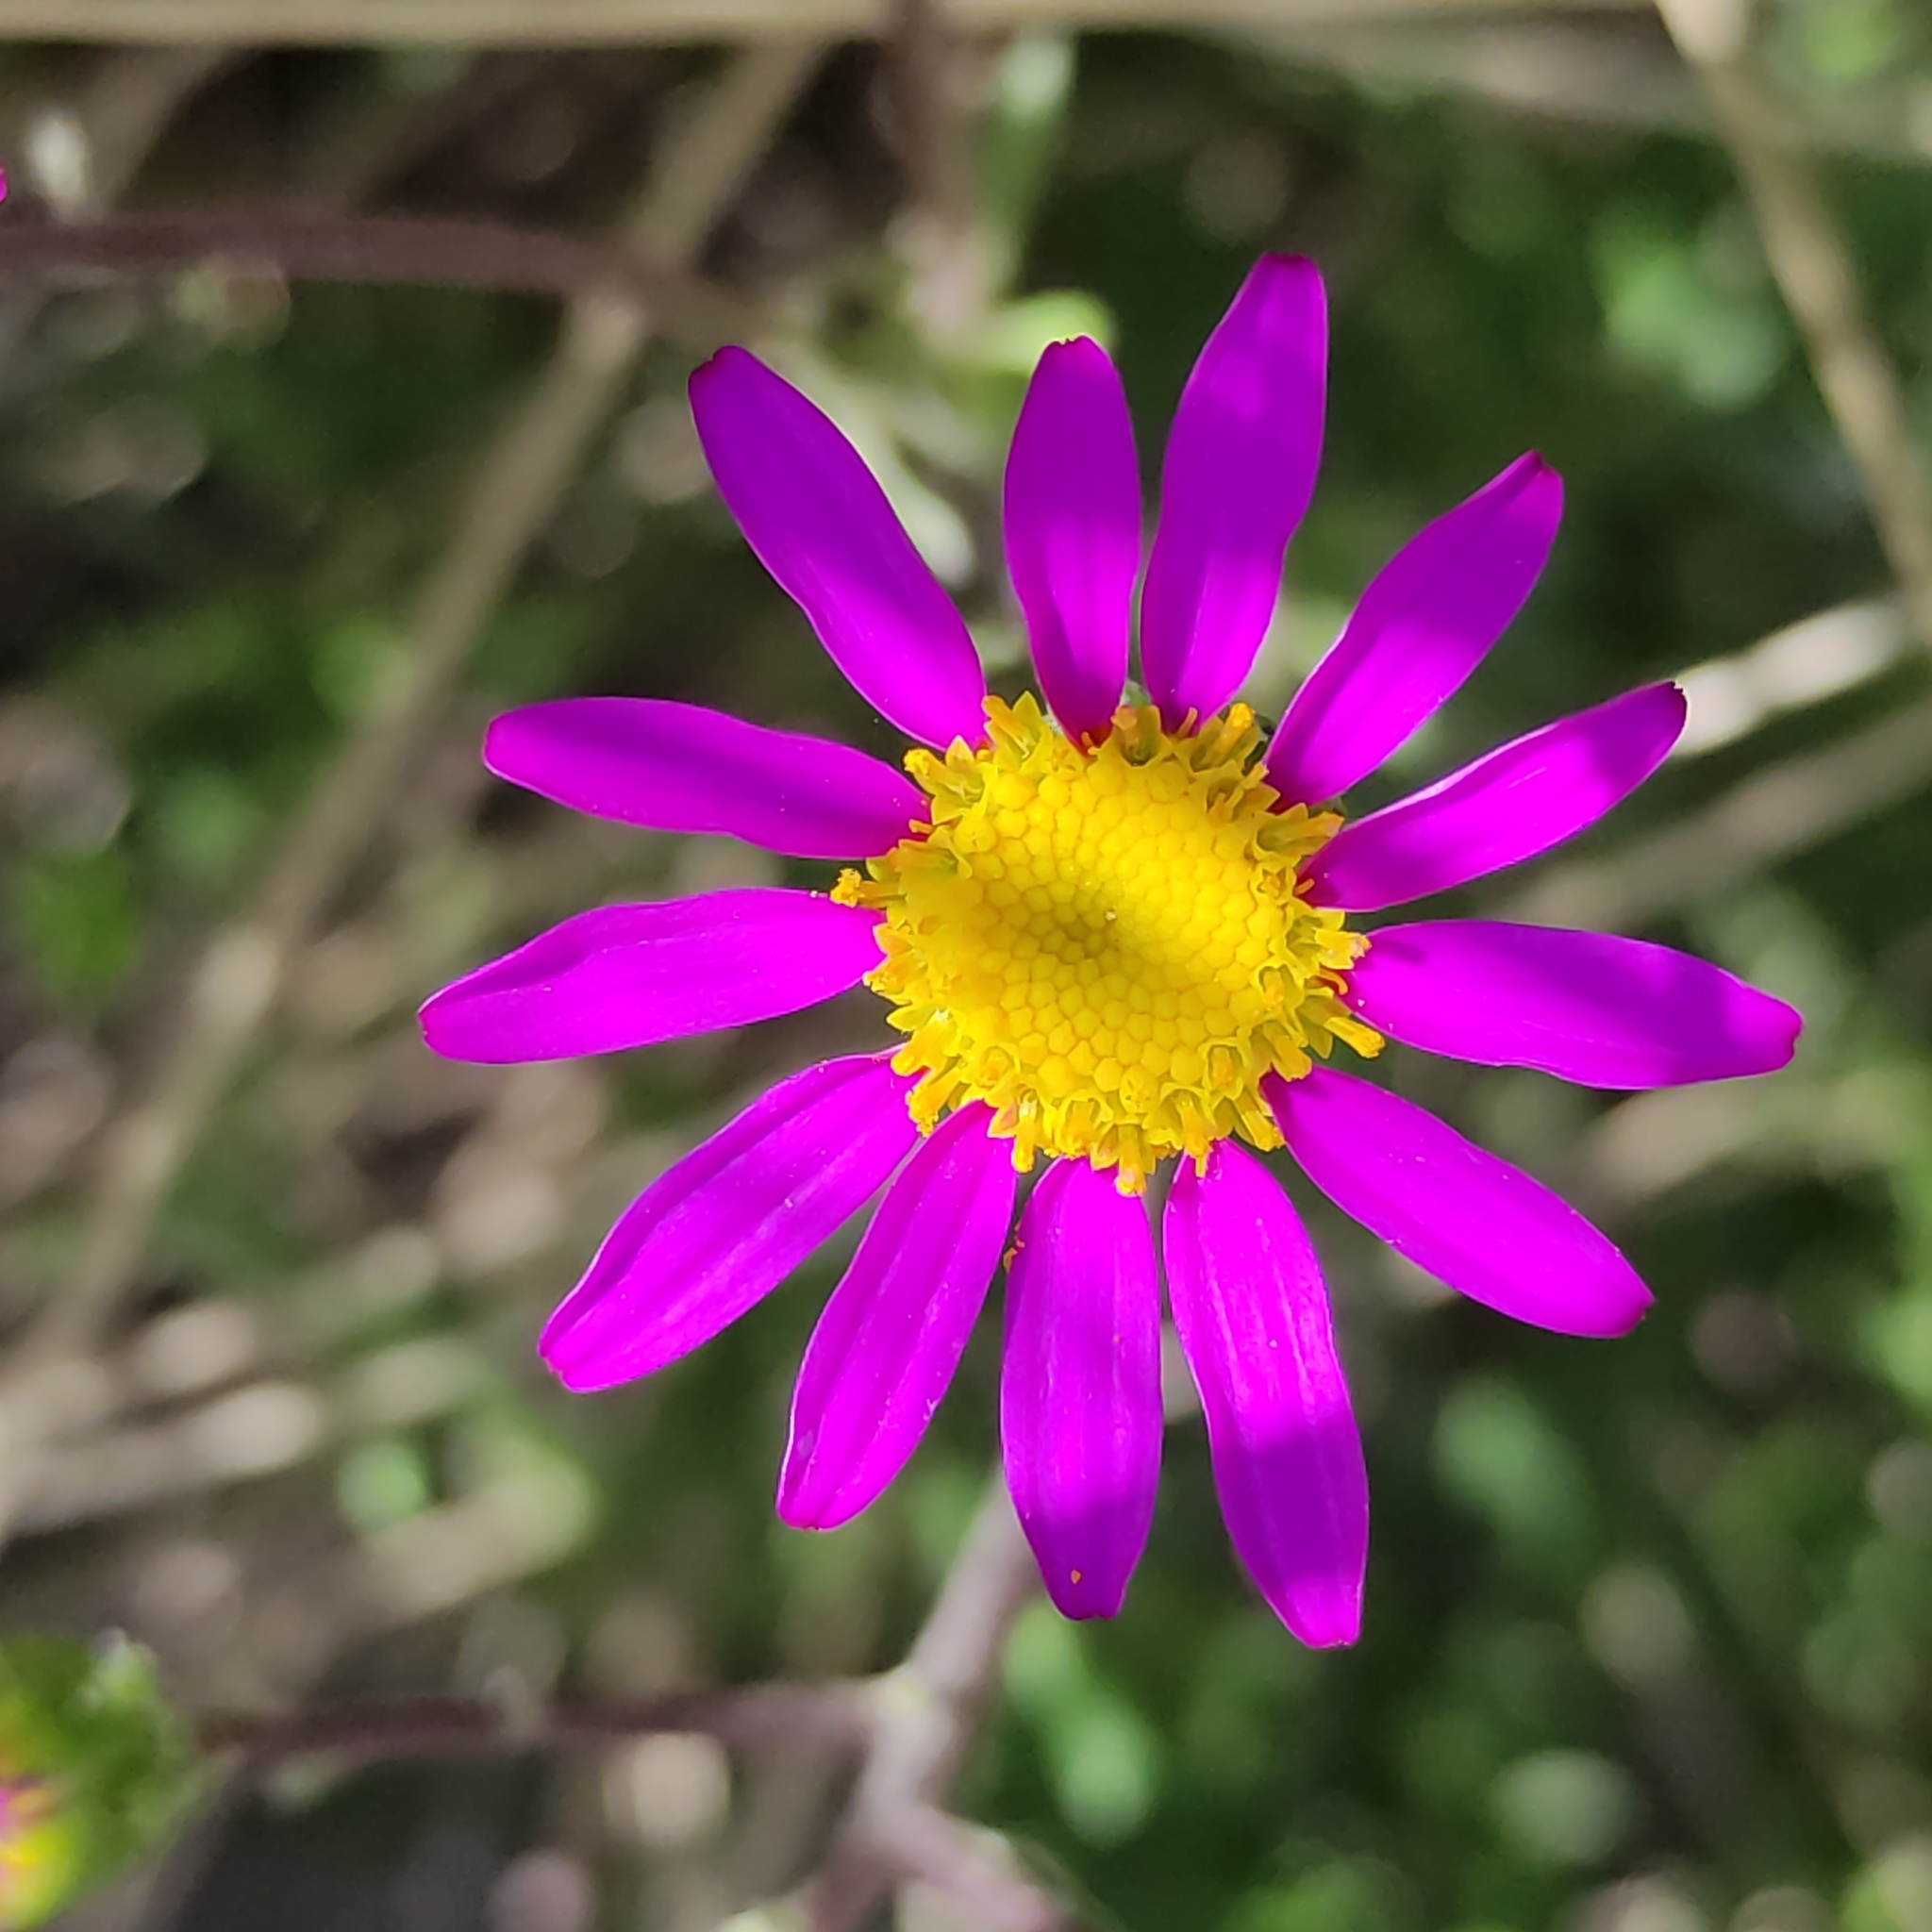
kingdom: Plantae
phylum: Tracheophyta
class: Magnoliopsida
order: Asterales
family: Asteraceae
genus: Senecio
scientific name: Senecio elegans
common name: Purple groundsel
